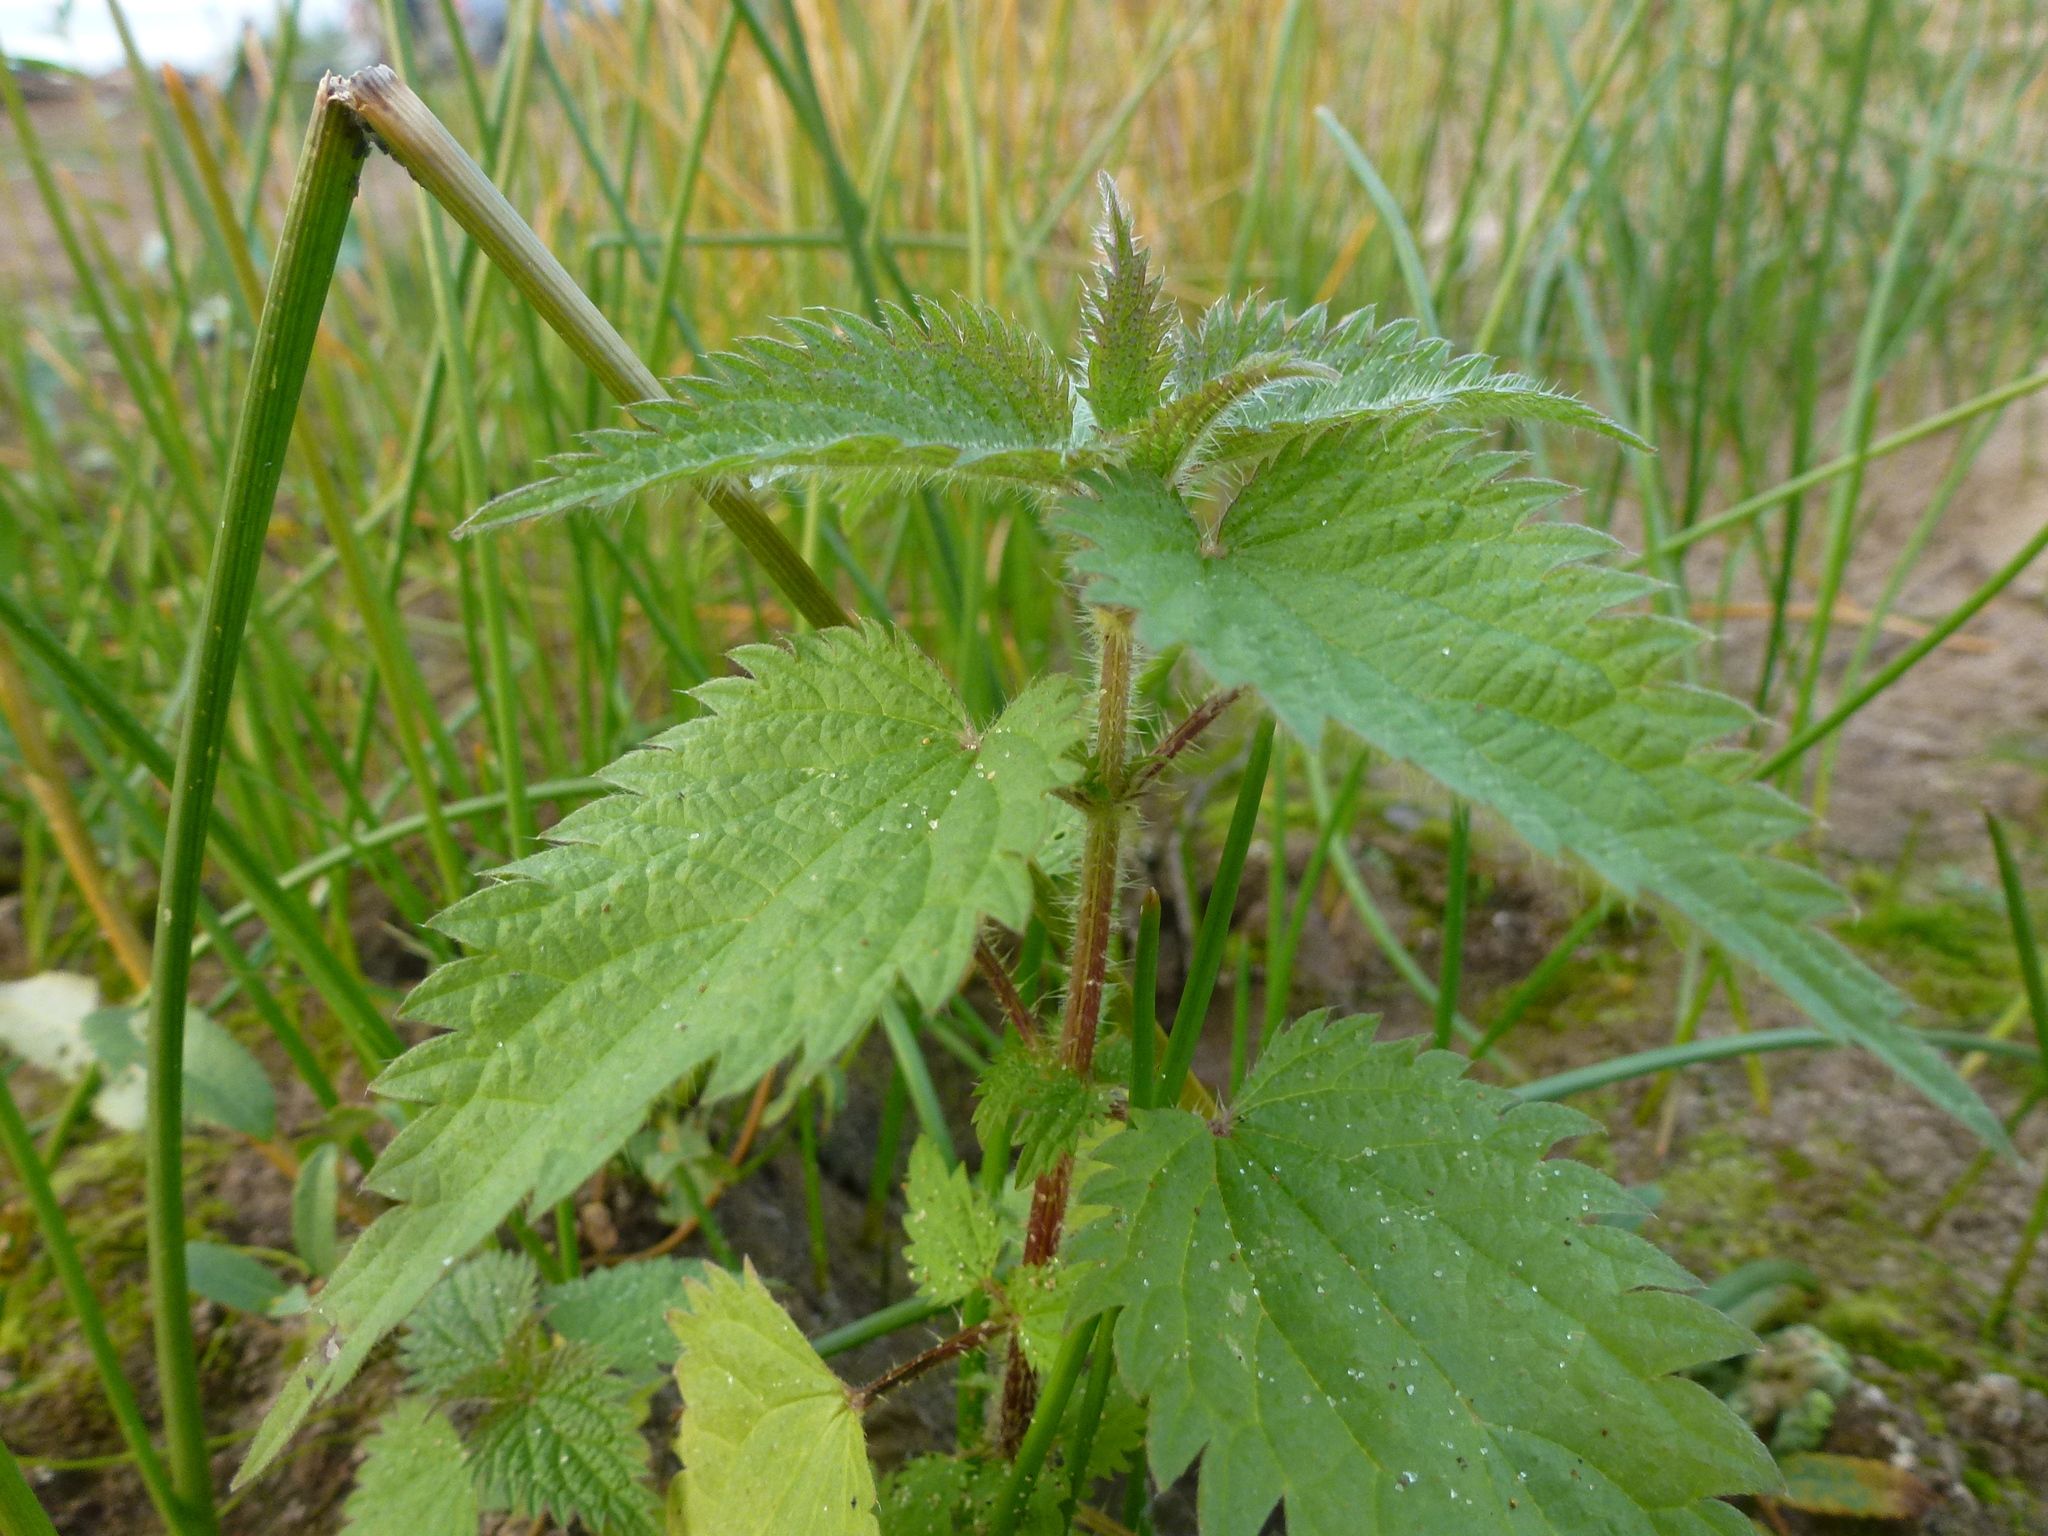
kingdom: Plantae
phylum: Tracheophyta
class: Magnoliopsida
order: Rosales
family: Urticaceae
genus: Urtica
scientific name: Urtica dioica
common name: Common nettle
